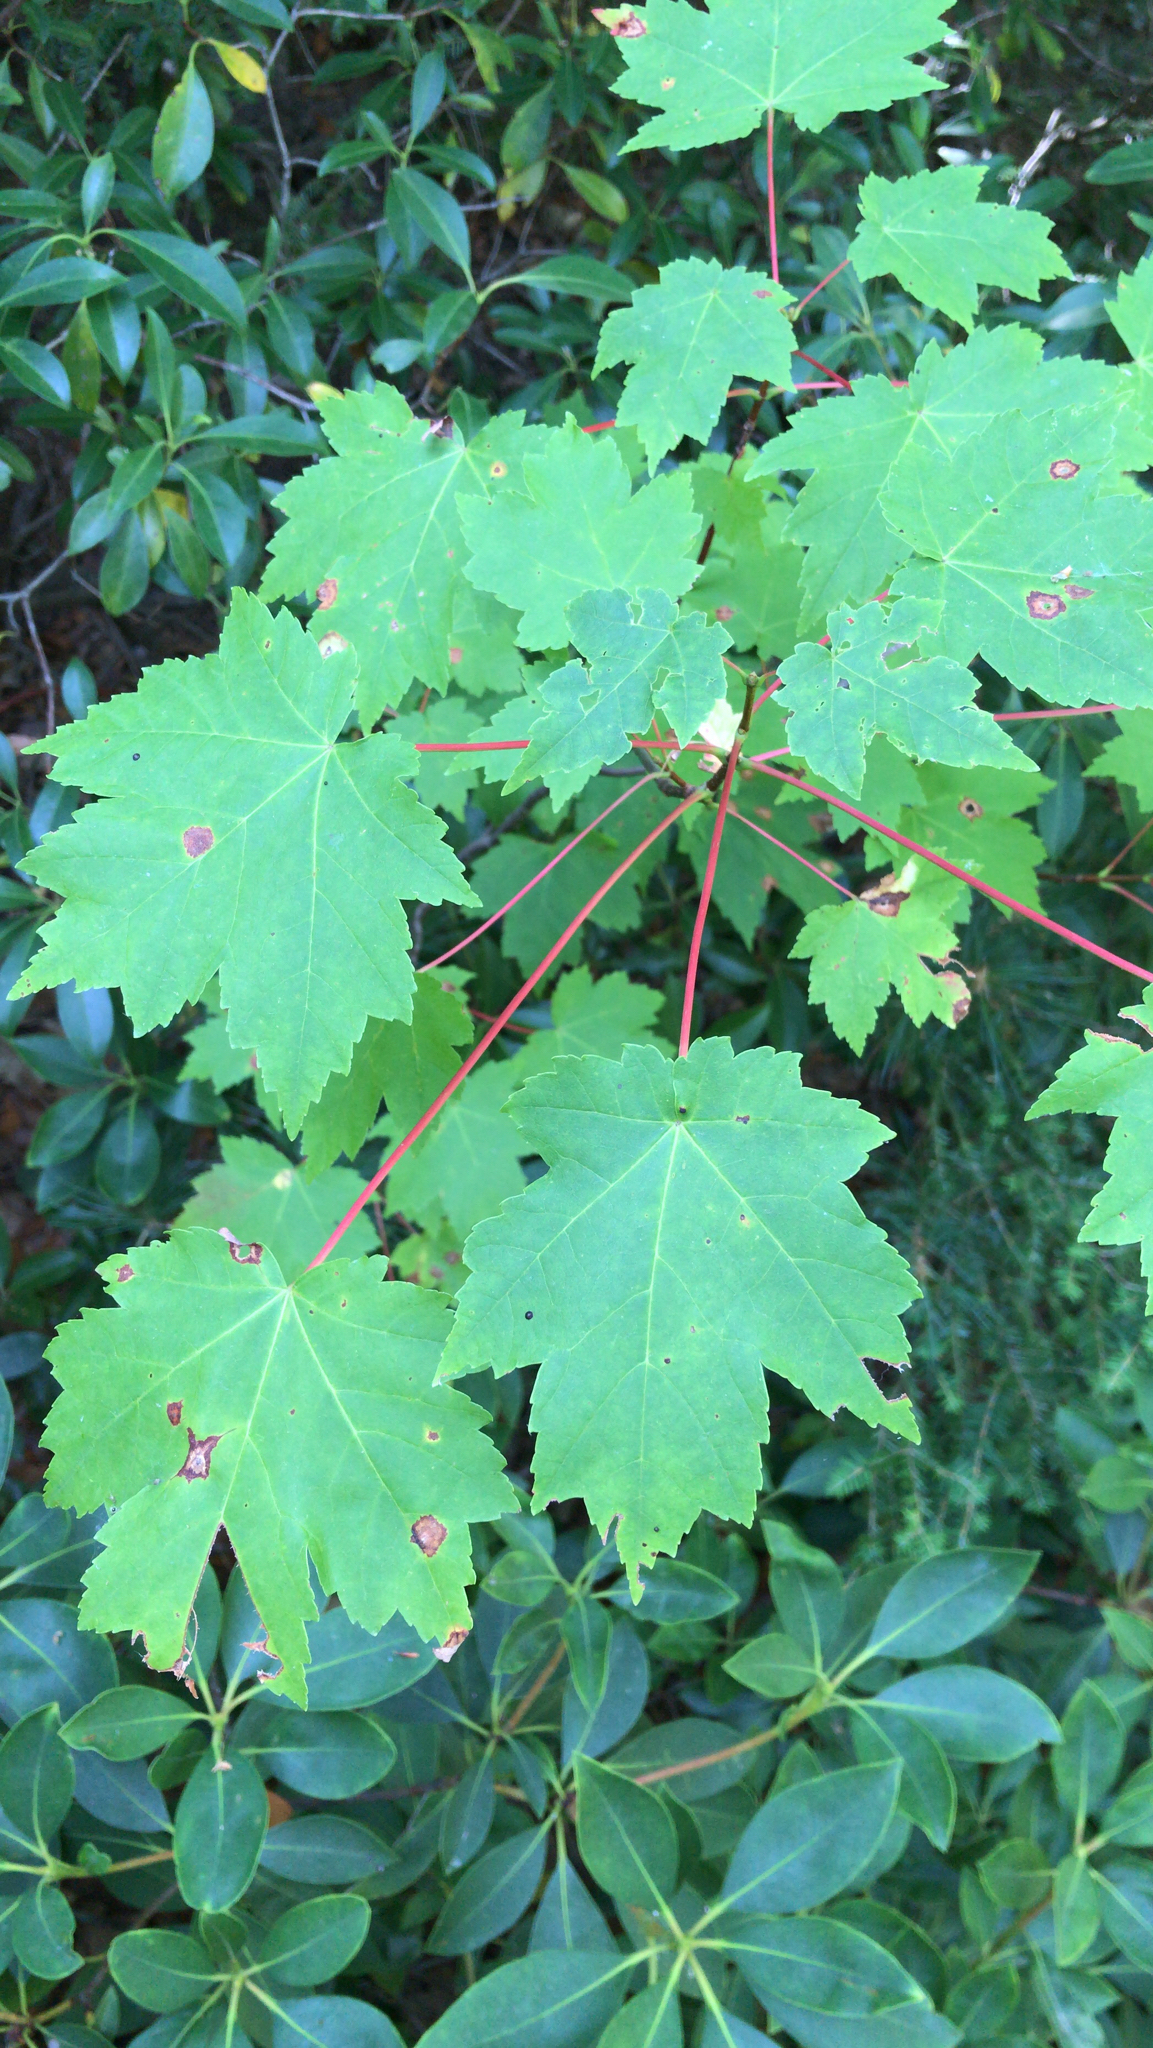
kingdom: Plantae
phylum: Tracheophyta
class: Magnoliopsida
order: Sapindales
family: Sapindaceae
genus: Acer
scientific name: Acer rubrum
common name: Red maple
